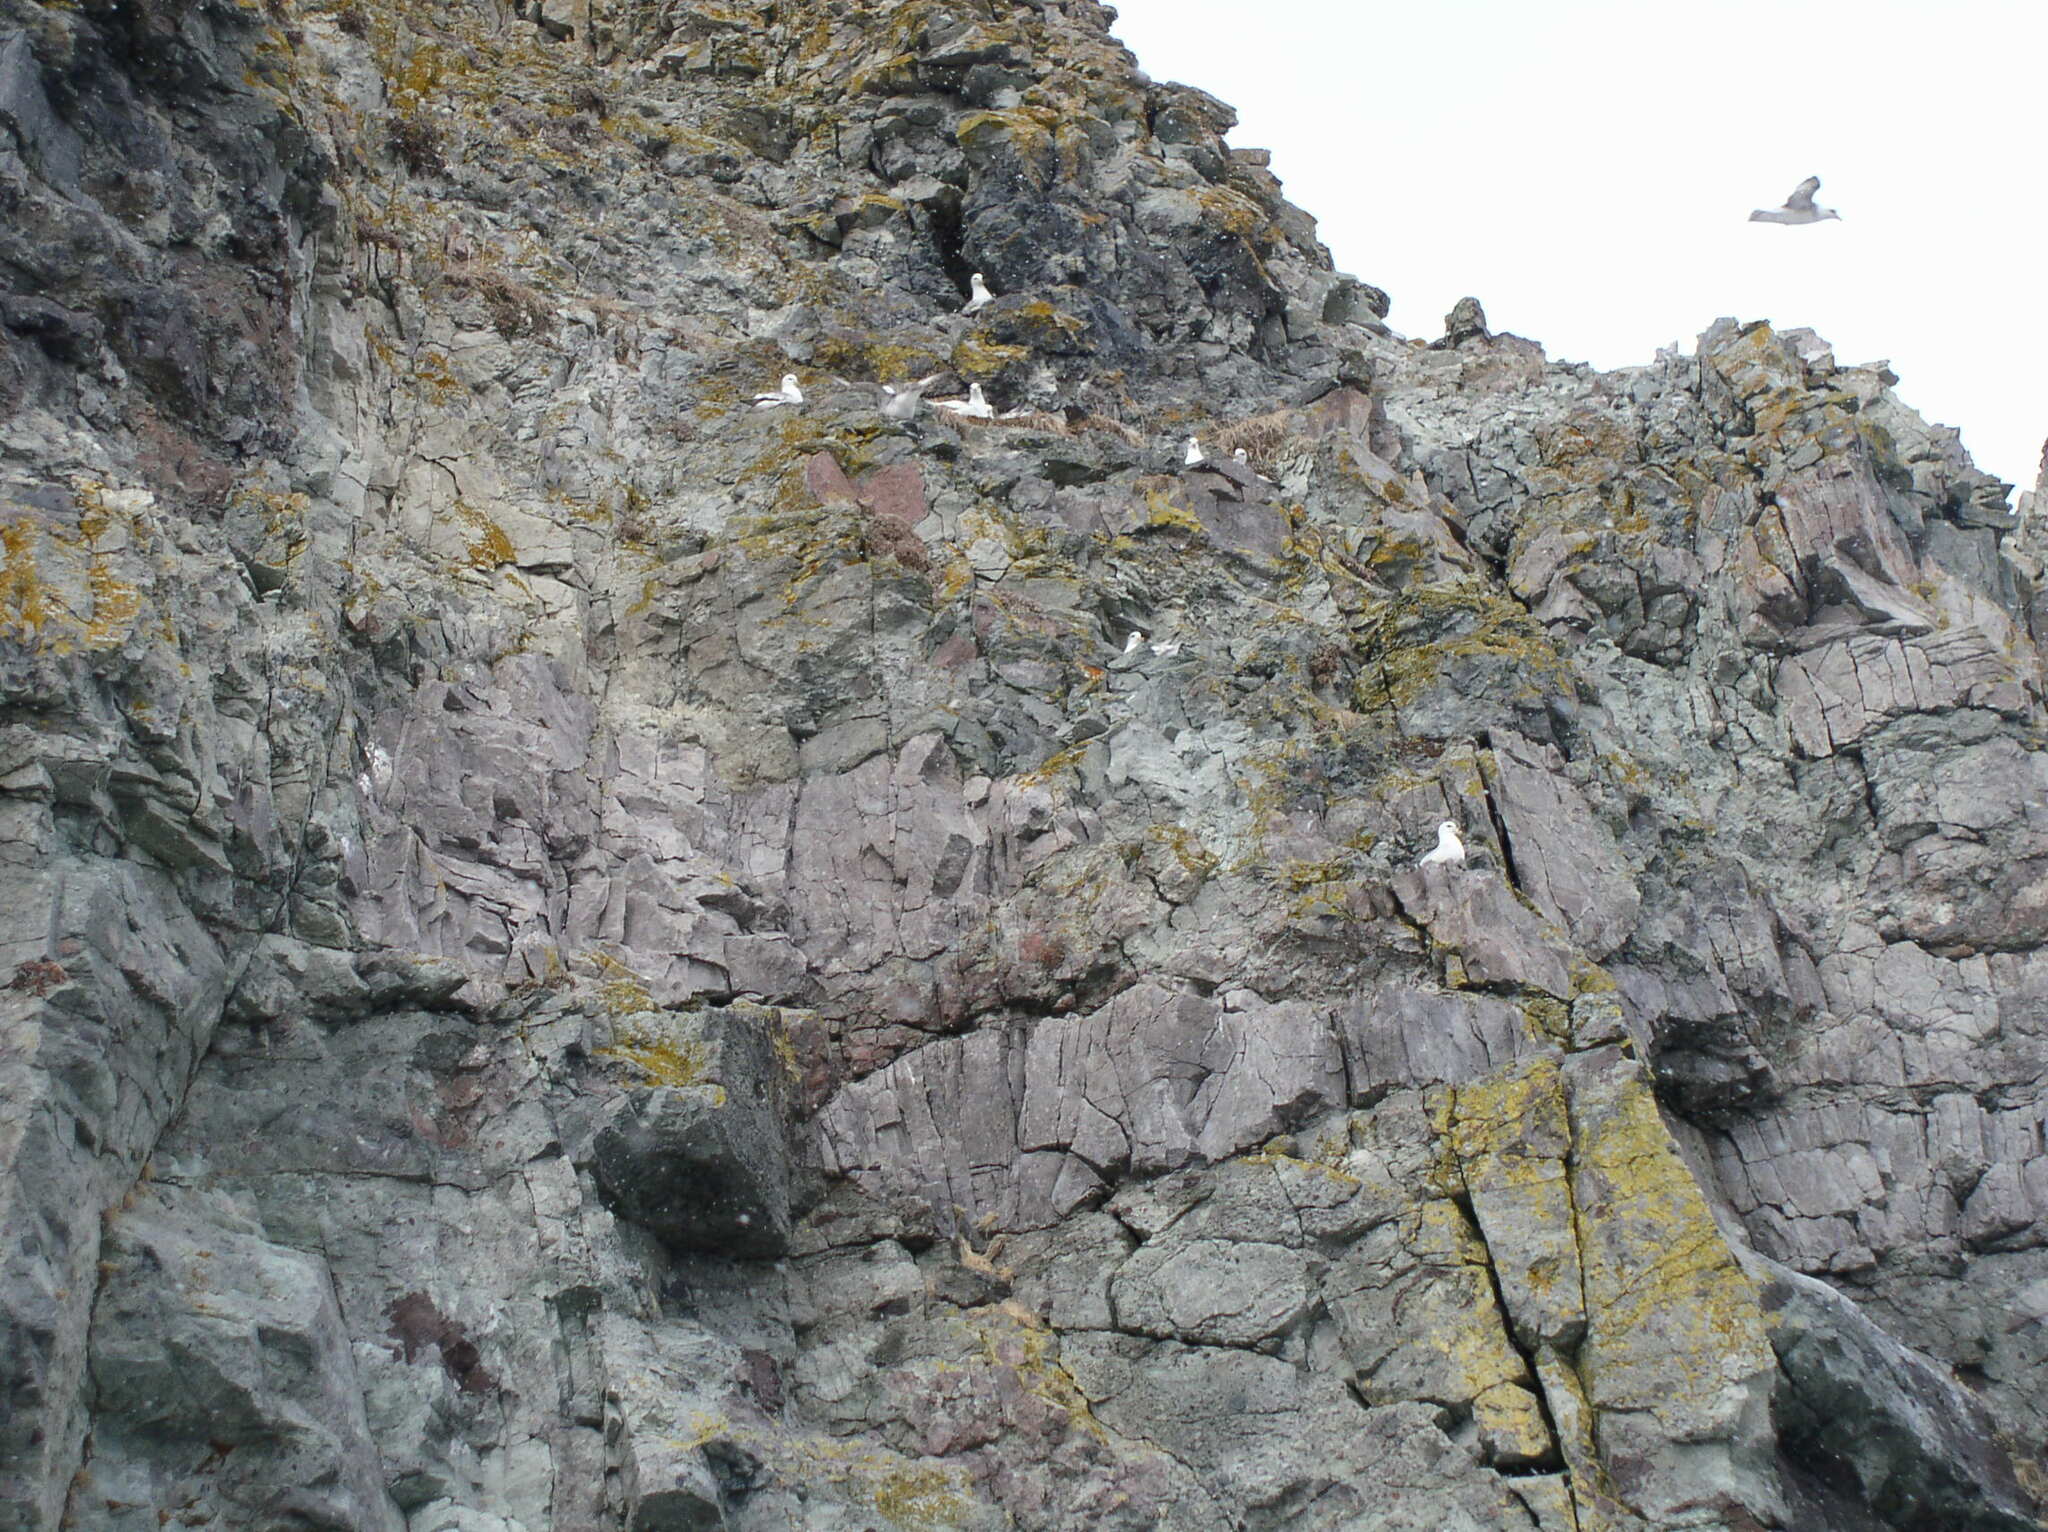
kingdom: Animalia
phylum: Chordata
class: Aves
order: Procellariiformes
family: Procellariidae
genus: Fulmarus
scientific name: Fulmarus glacialis
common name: Northern fulmar
